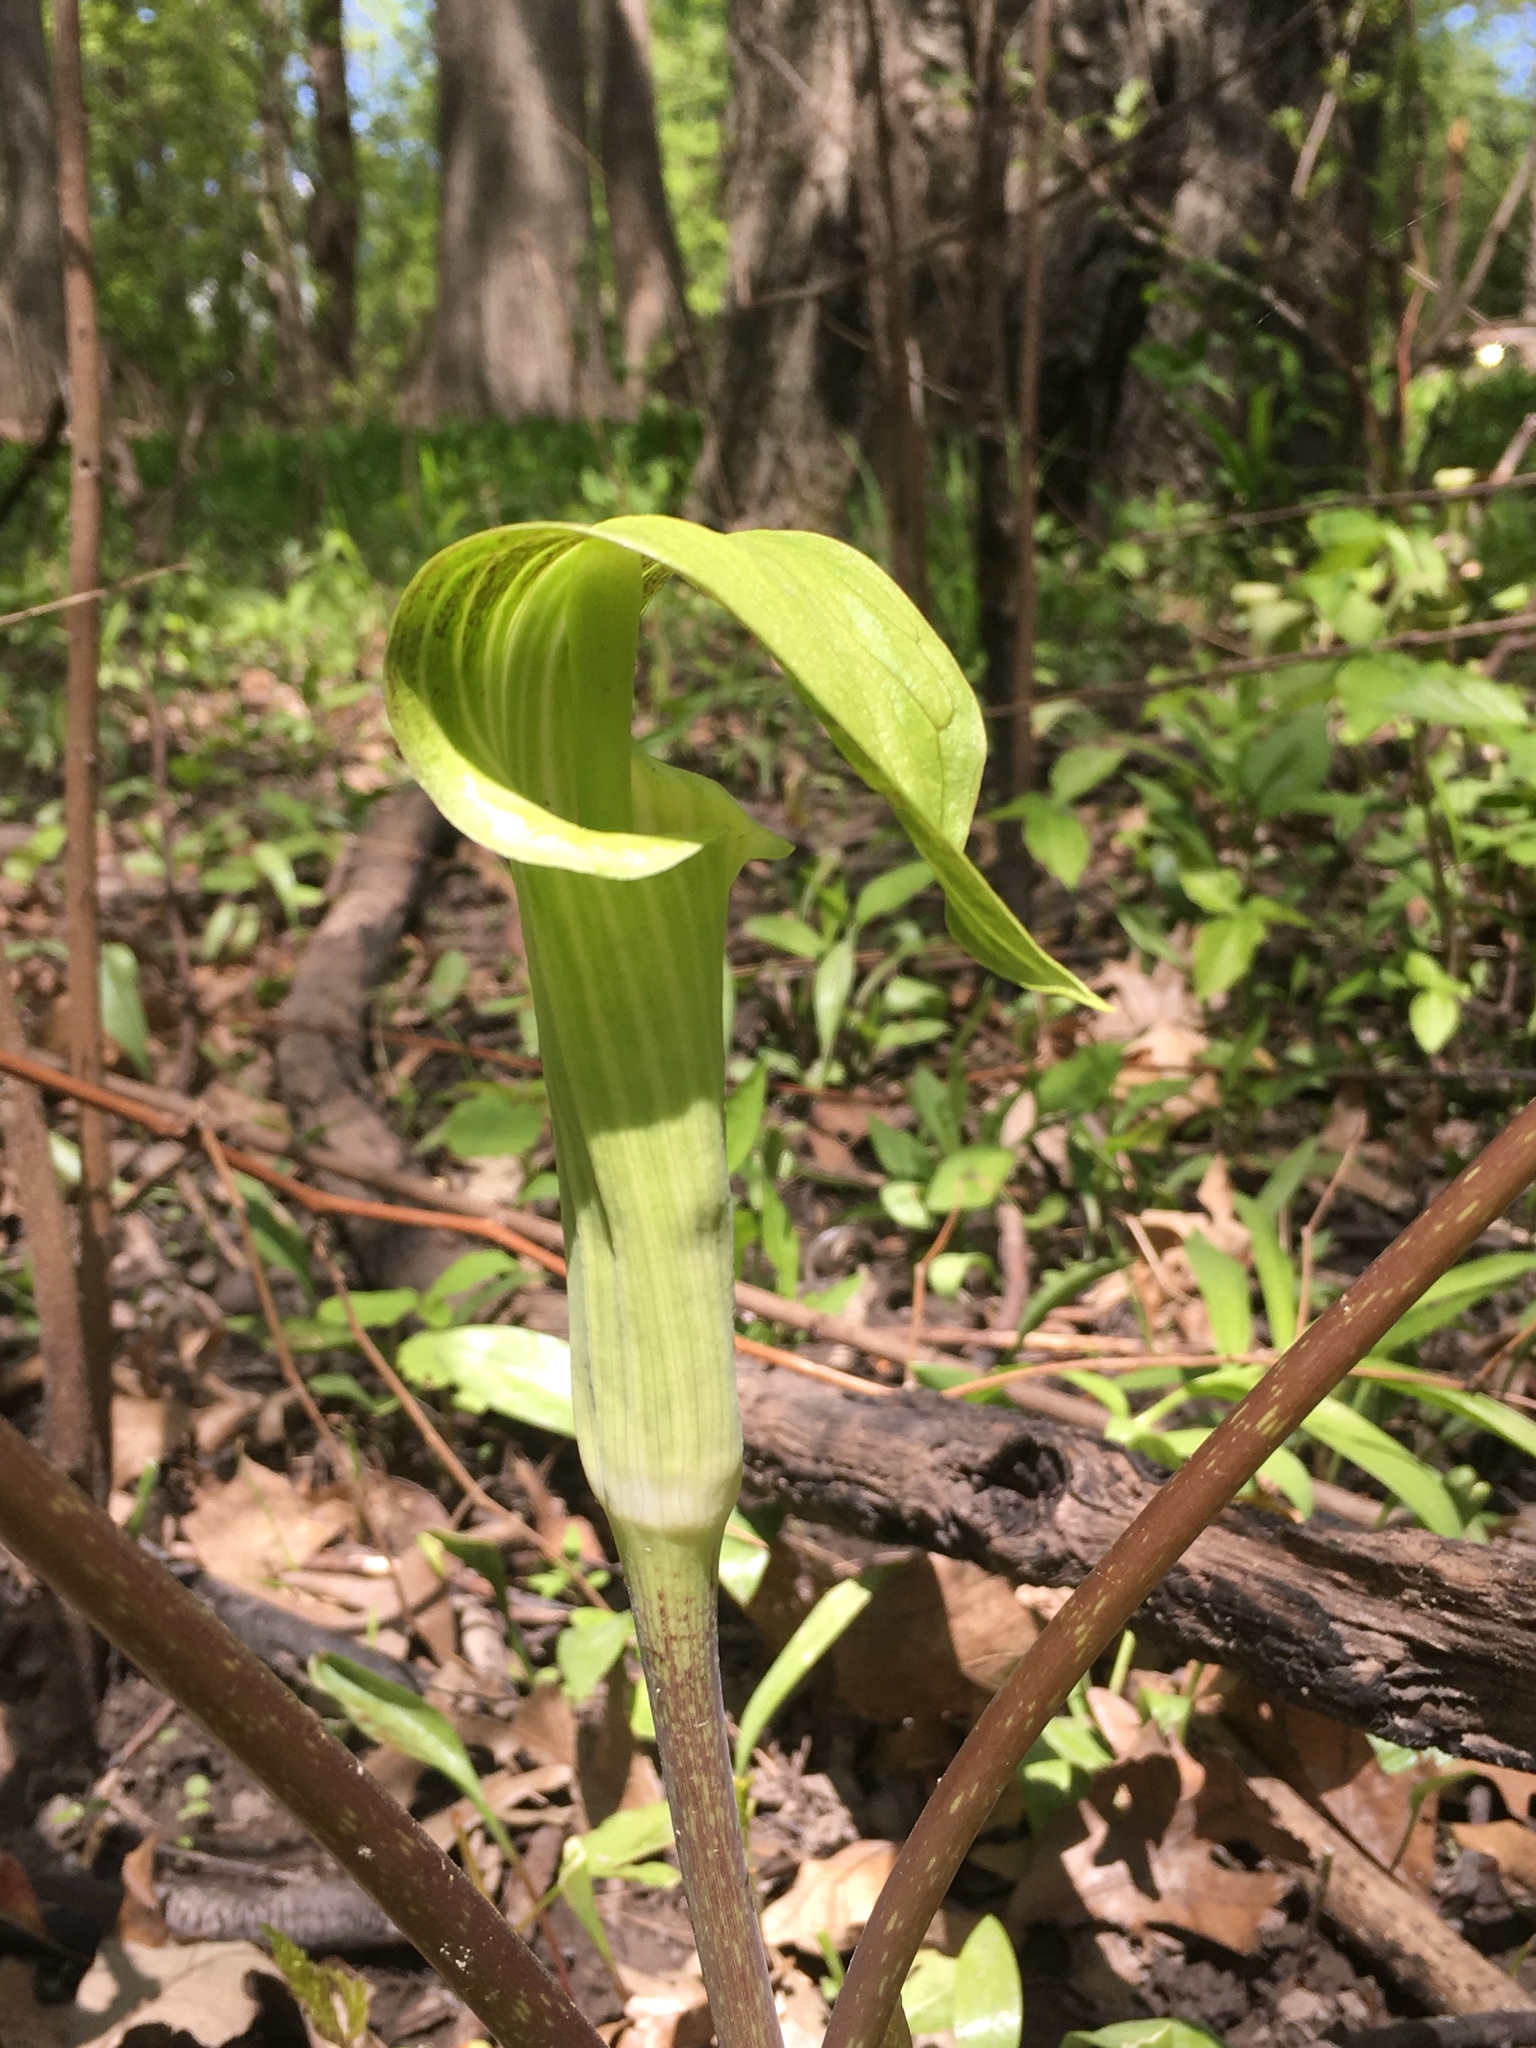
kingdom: Plantae
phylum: Tracheophyta
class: Liliopsida
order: Alismatales
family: Araceae
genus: Arisaema
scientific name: Arisaema triphyllum
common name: Jack-in-the-pulpit
